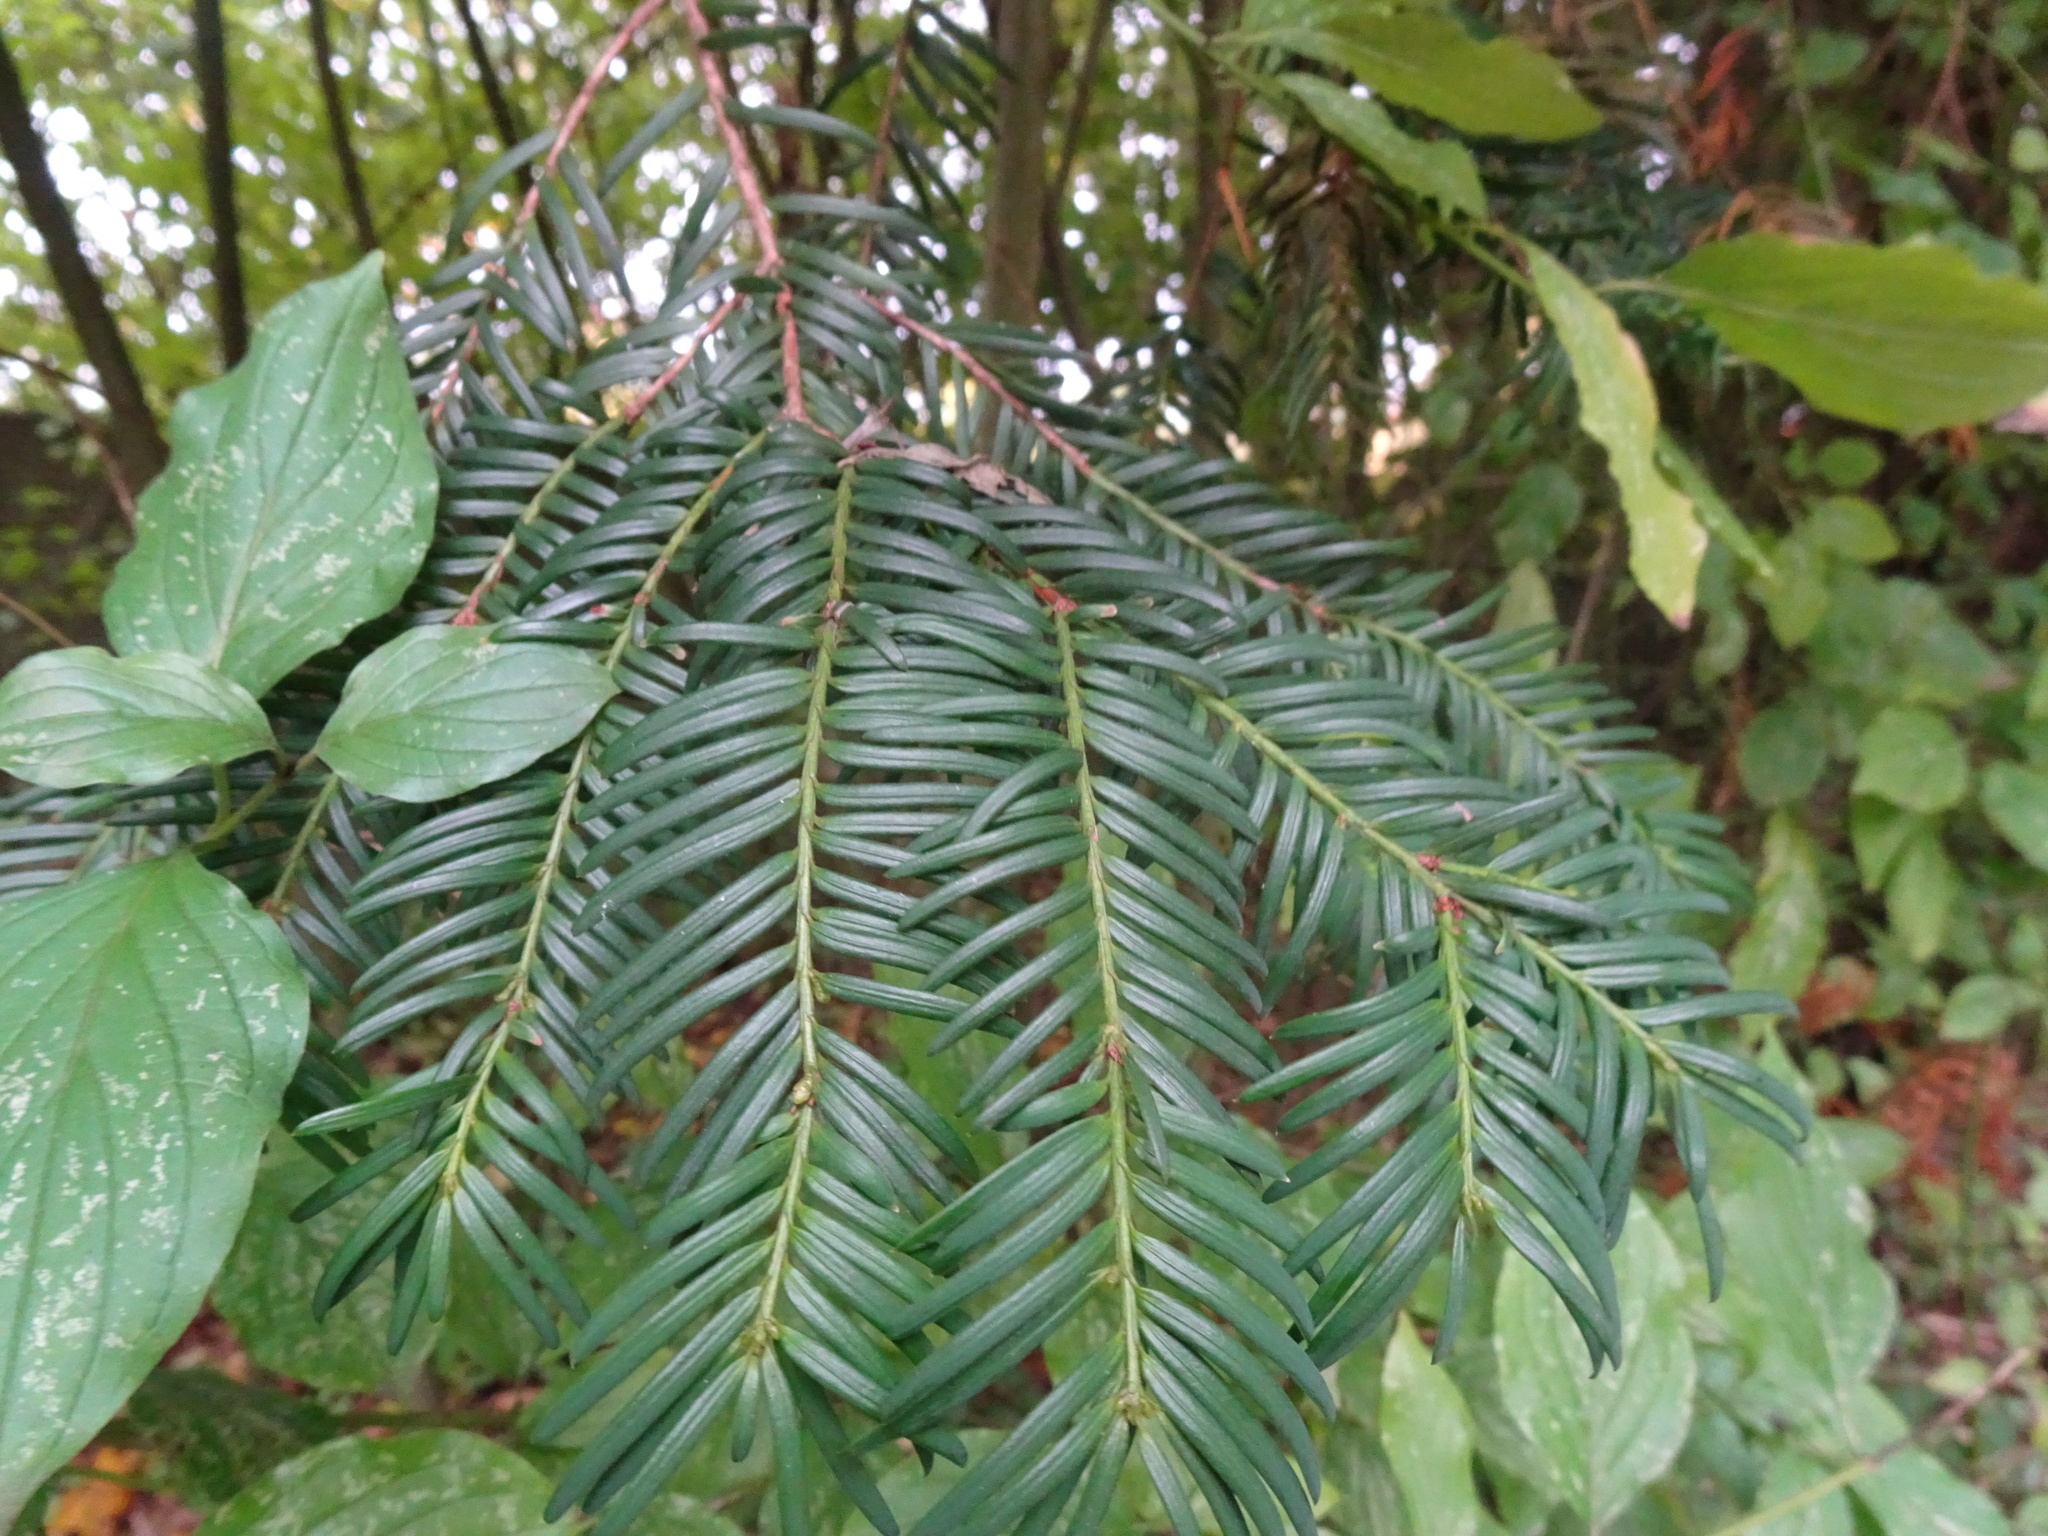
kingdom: Plantae
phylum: Tracheophyta
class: Pinopsida
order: Pinales
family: Taxaceae
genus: Taxus
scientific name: Taxus baccata
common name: Yew
